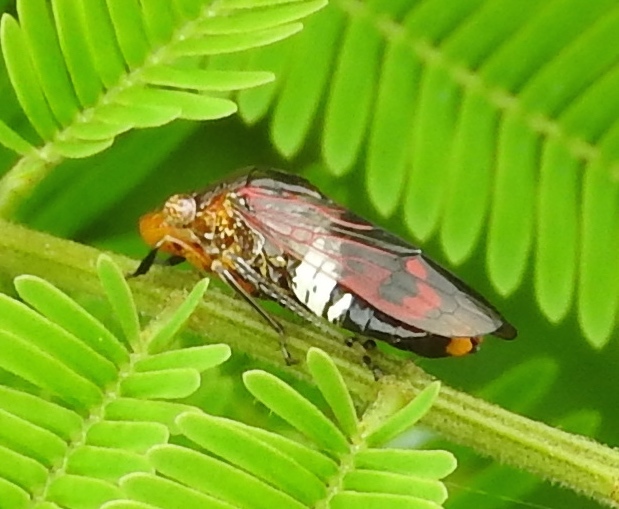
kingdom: Animalia
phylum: Arthropoda
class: Insecta
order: Hemiptera
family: Cicadellidae
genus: Homalodisca
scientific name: Homalodisca ichthyocephala
